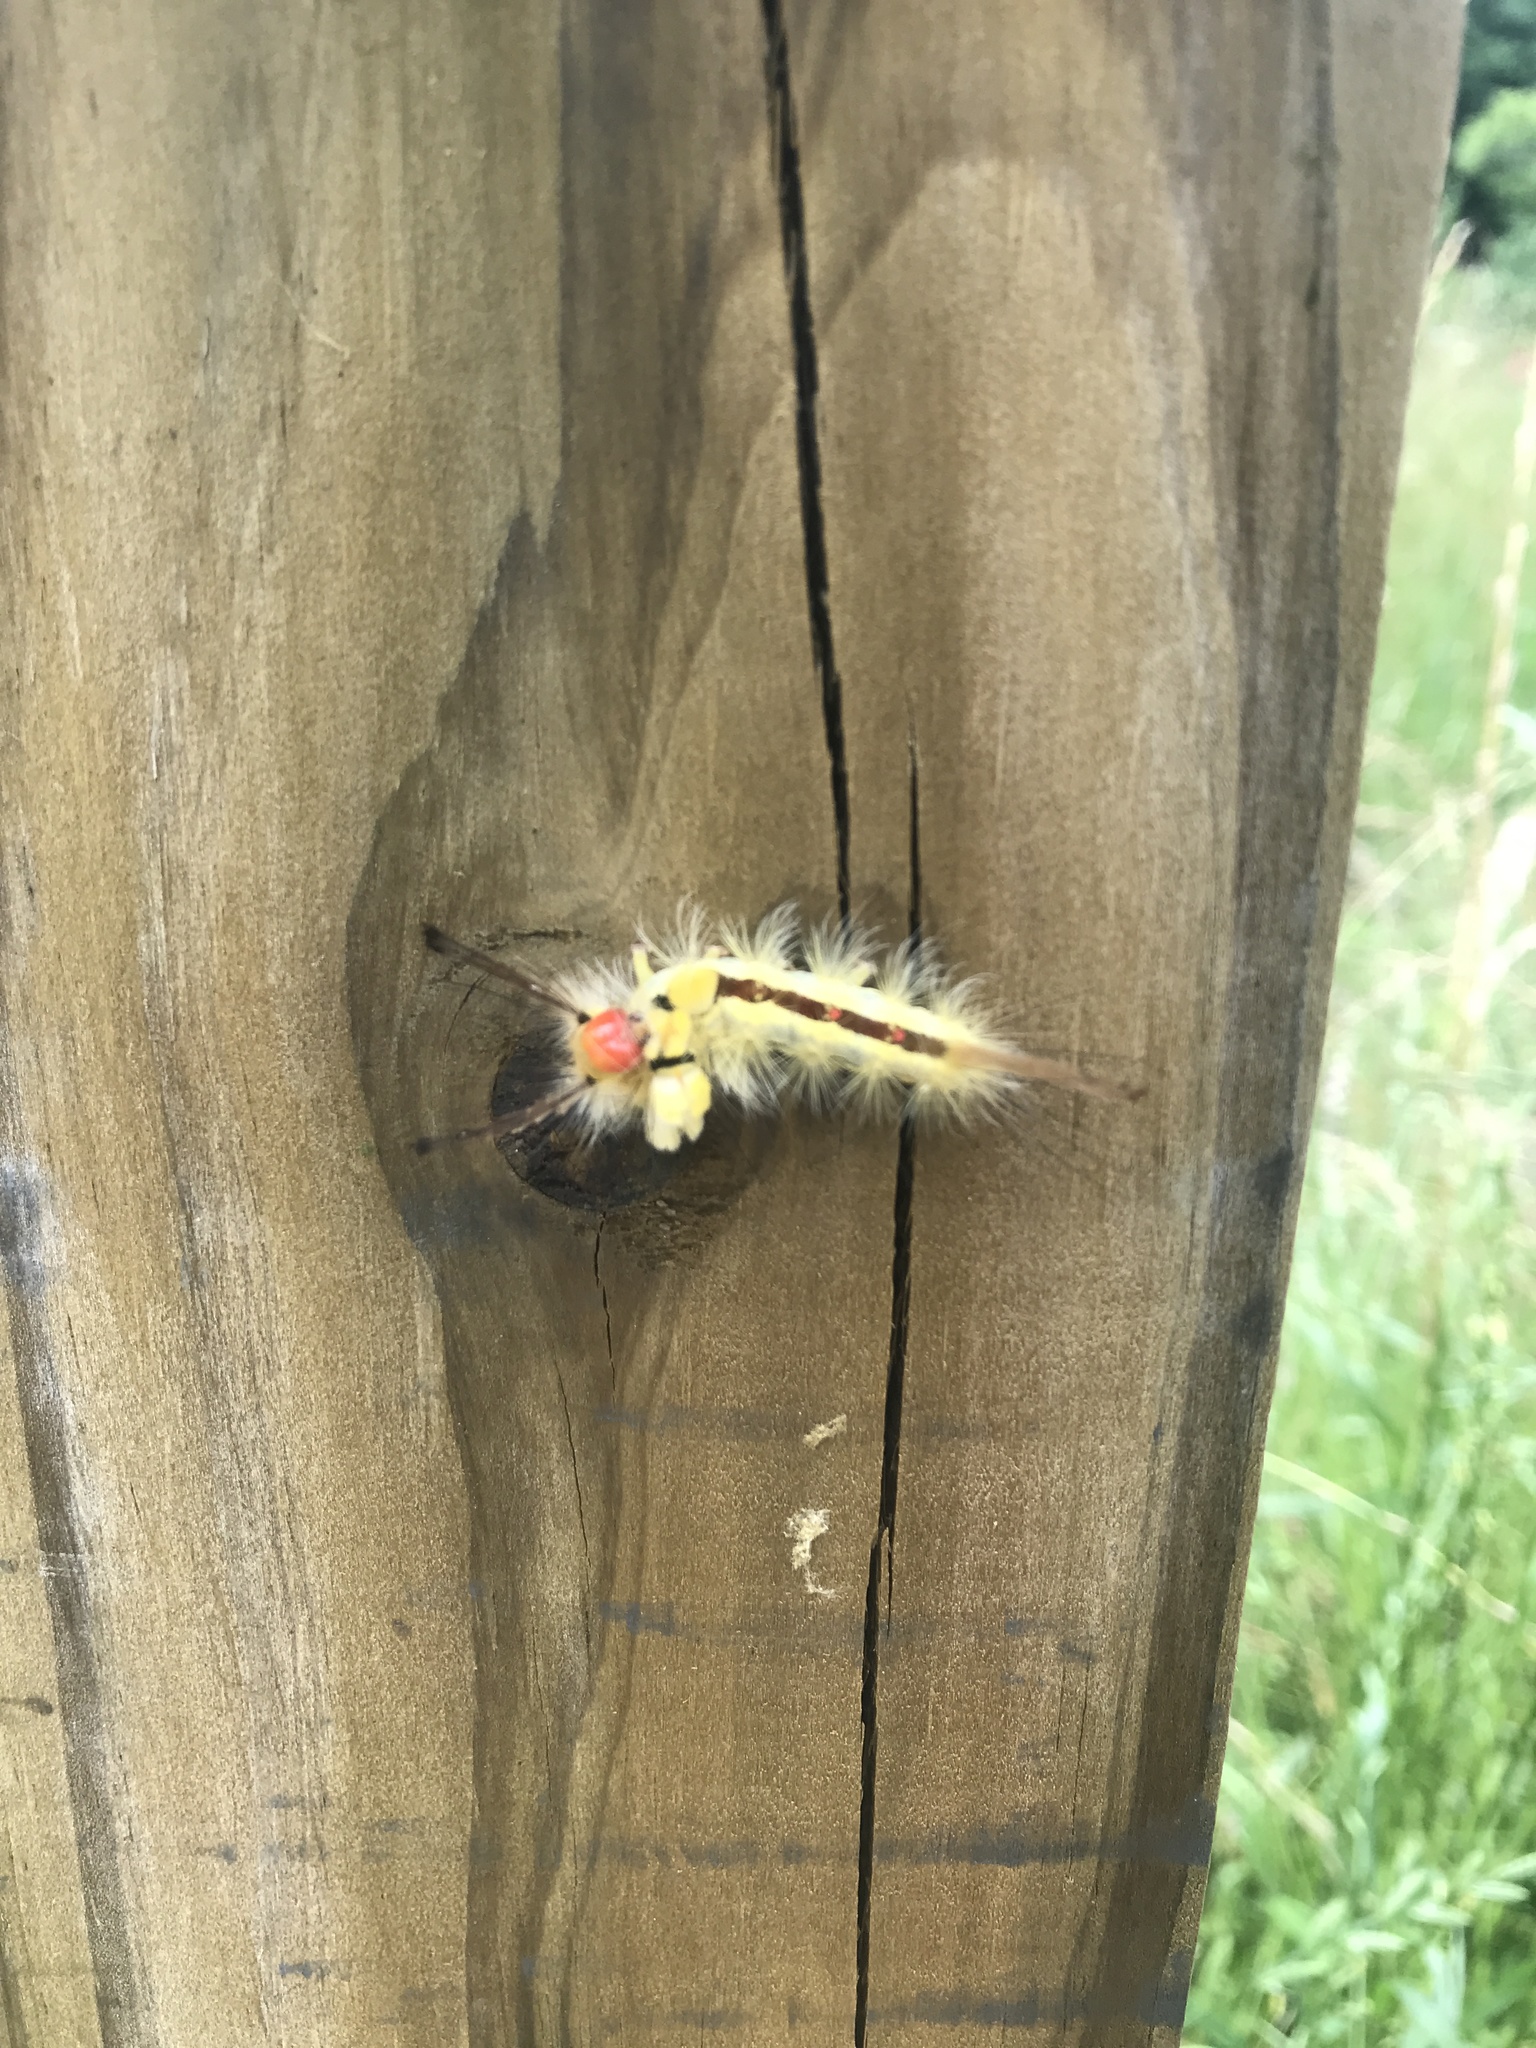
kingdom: Animalia
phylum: Arthropoda
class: Insecta
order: Lepidoptera
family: Erebidae
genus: Orgyia
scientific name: Orgyia leucostigma
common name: White-marked tussock moth
